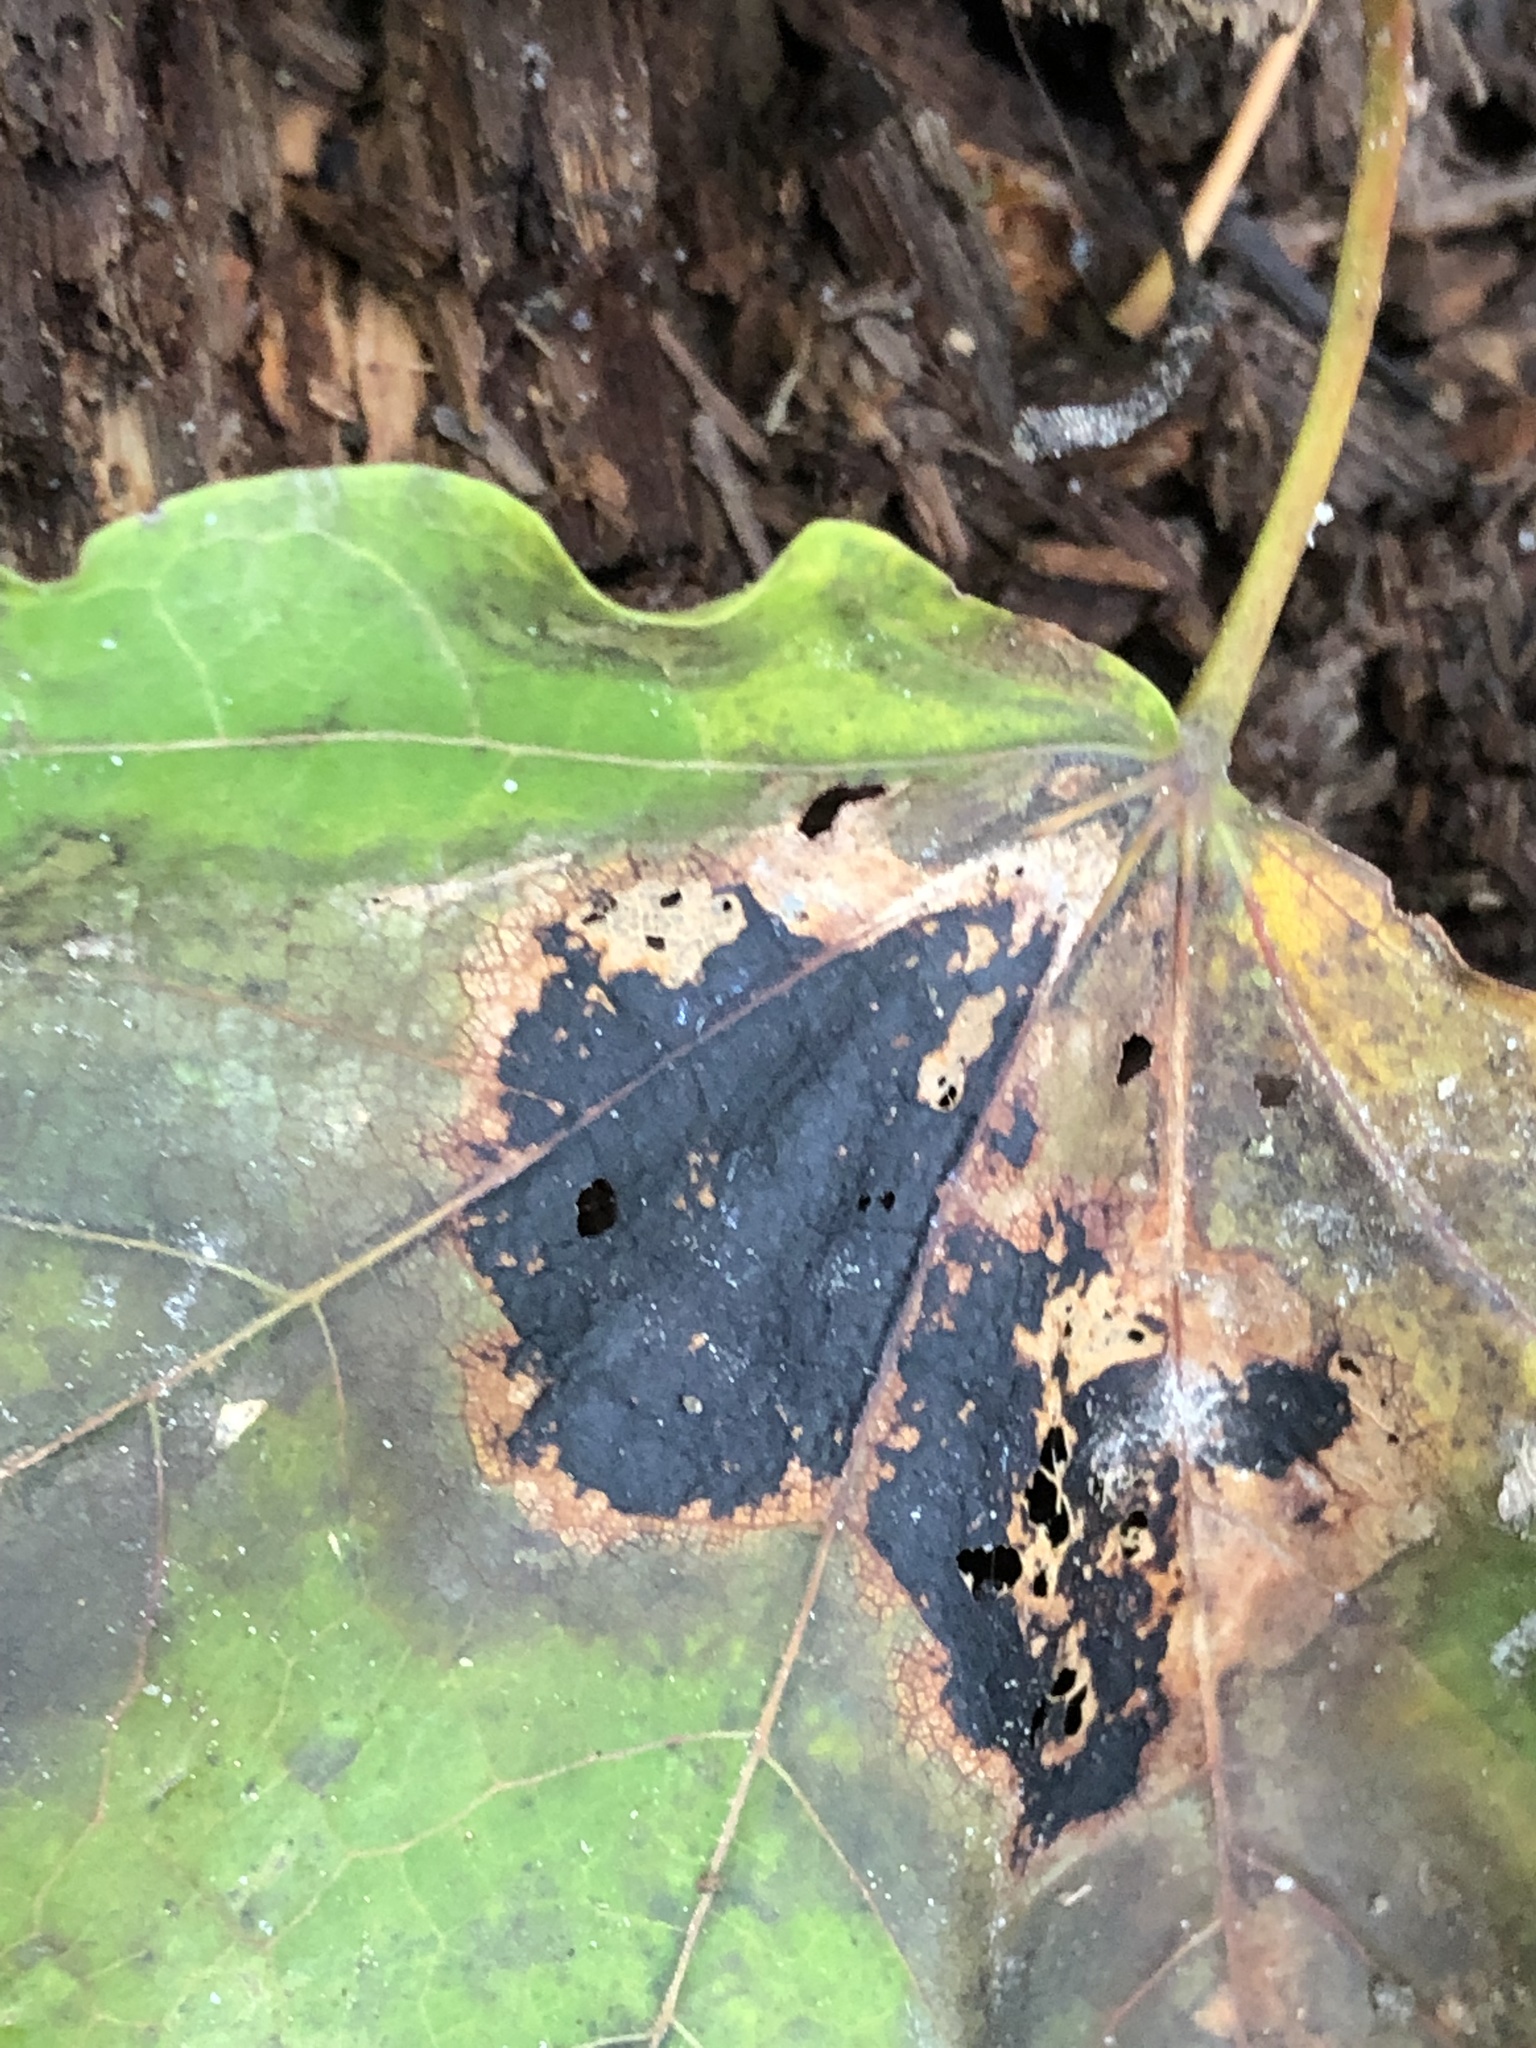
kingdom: Fungi
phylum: Ascomycota
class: Leotiomycetes
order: Rhytismatales
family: Rhytismataceae
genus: Rhytisma
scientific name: Rhytisma acerinum
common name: European tar spot
